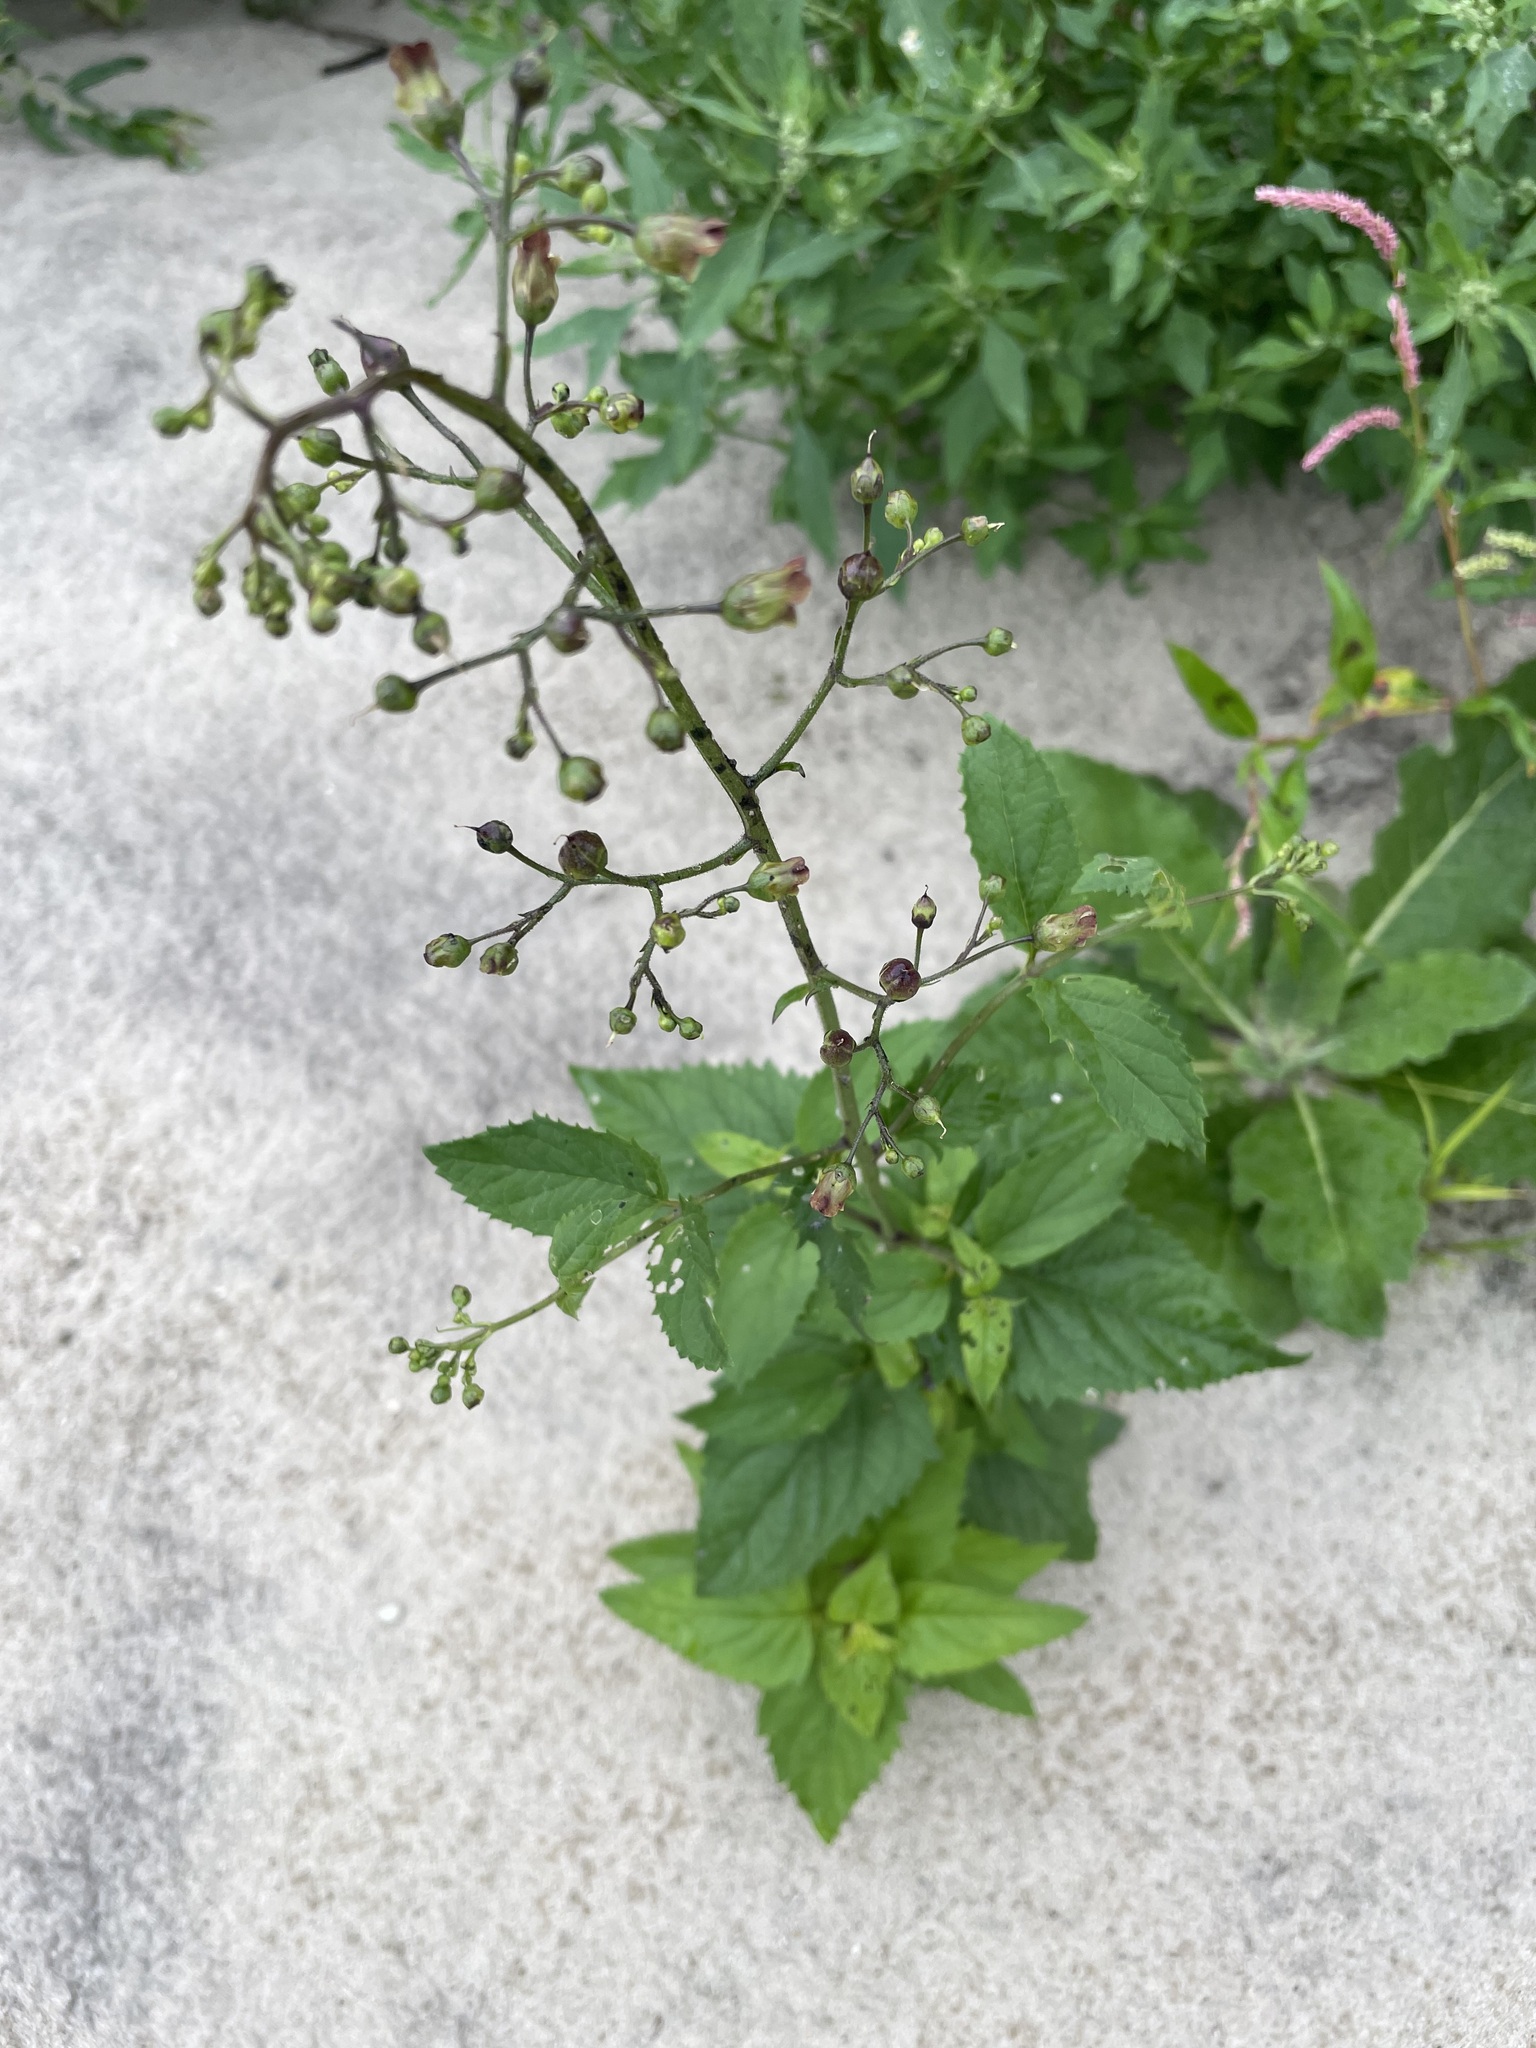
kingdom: Plantae
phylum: Tracheophyta
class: Magnoliopsida
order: Lamiales
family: Scrophulariaceae
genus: Scrophularia
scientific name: Scrophularia nodosa
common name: Common figwort
